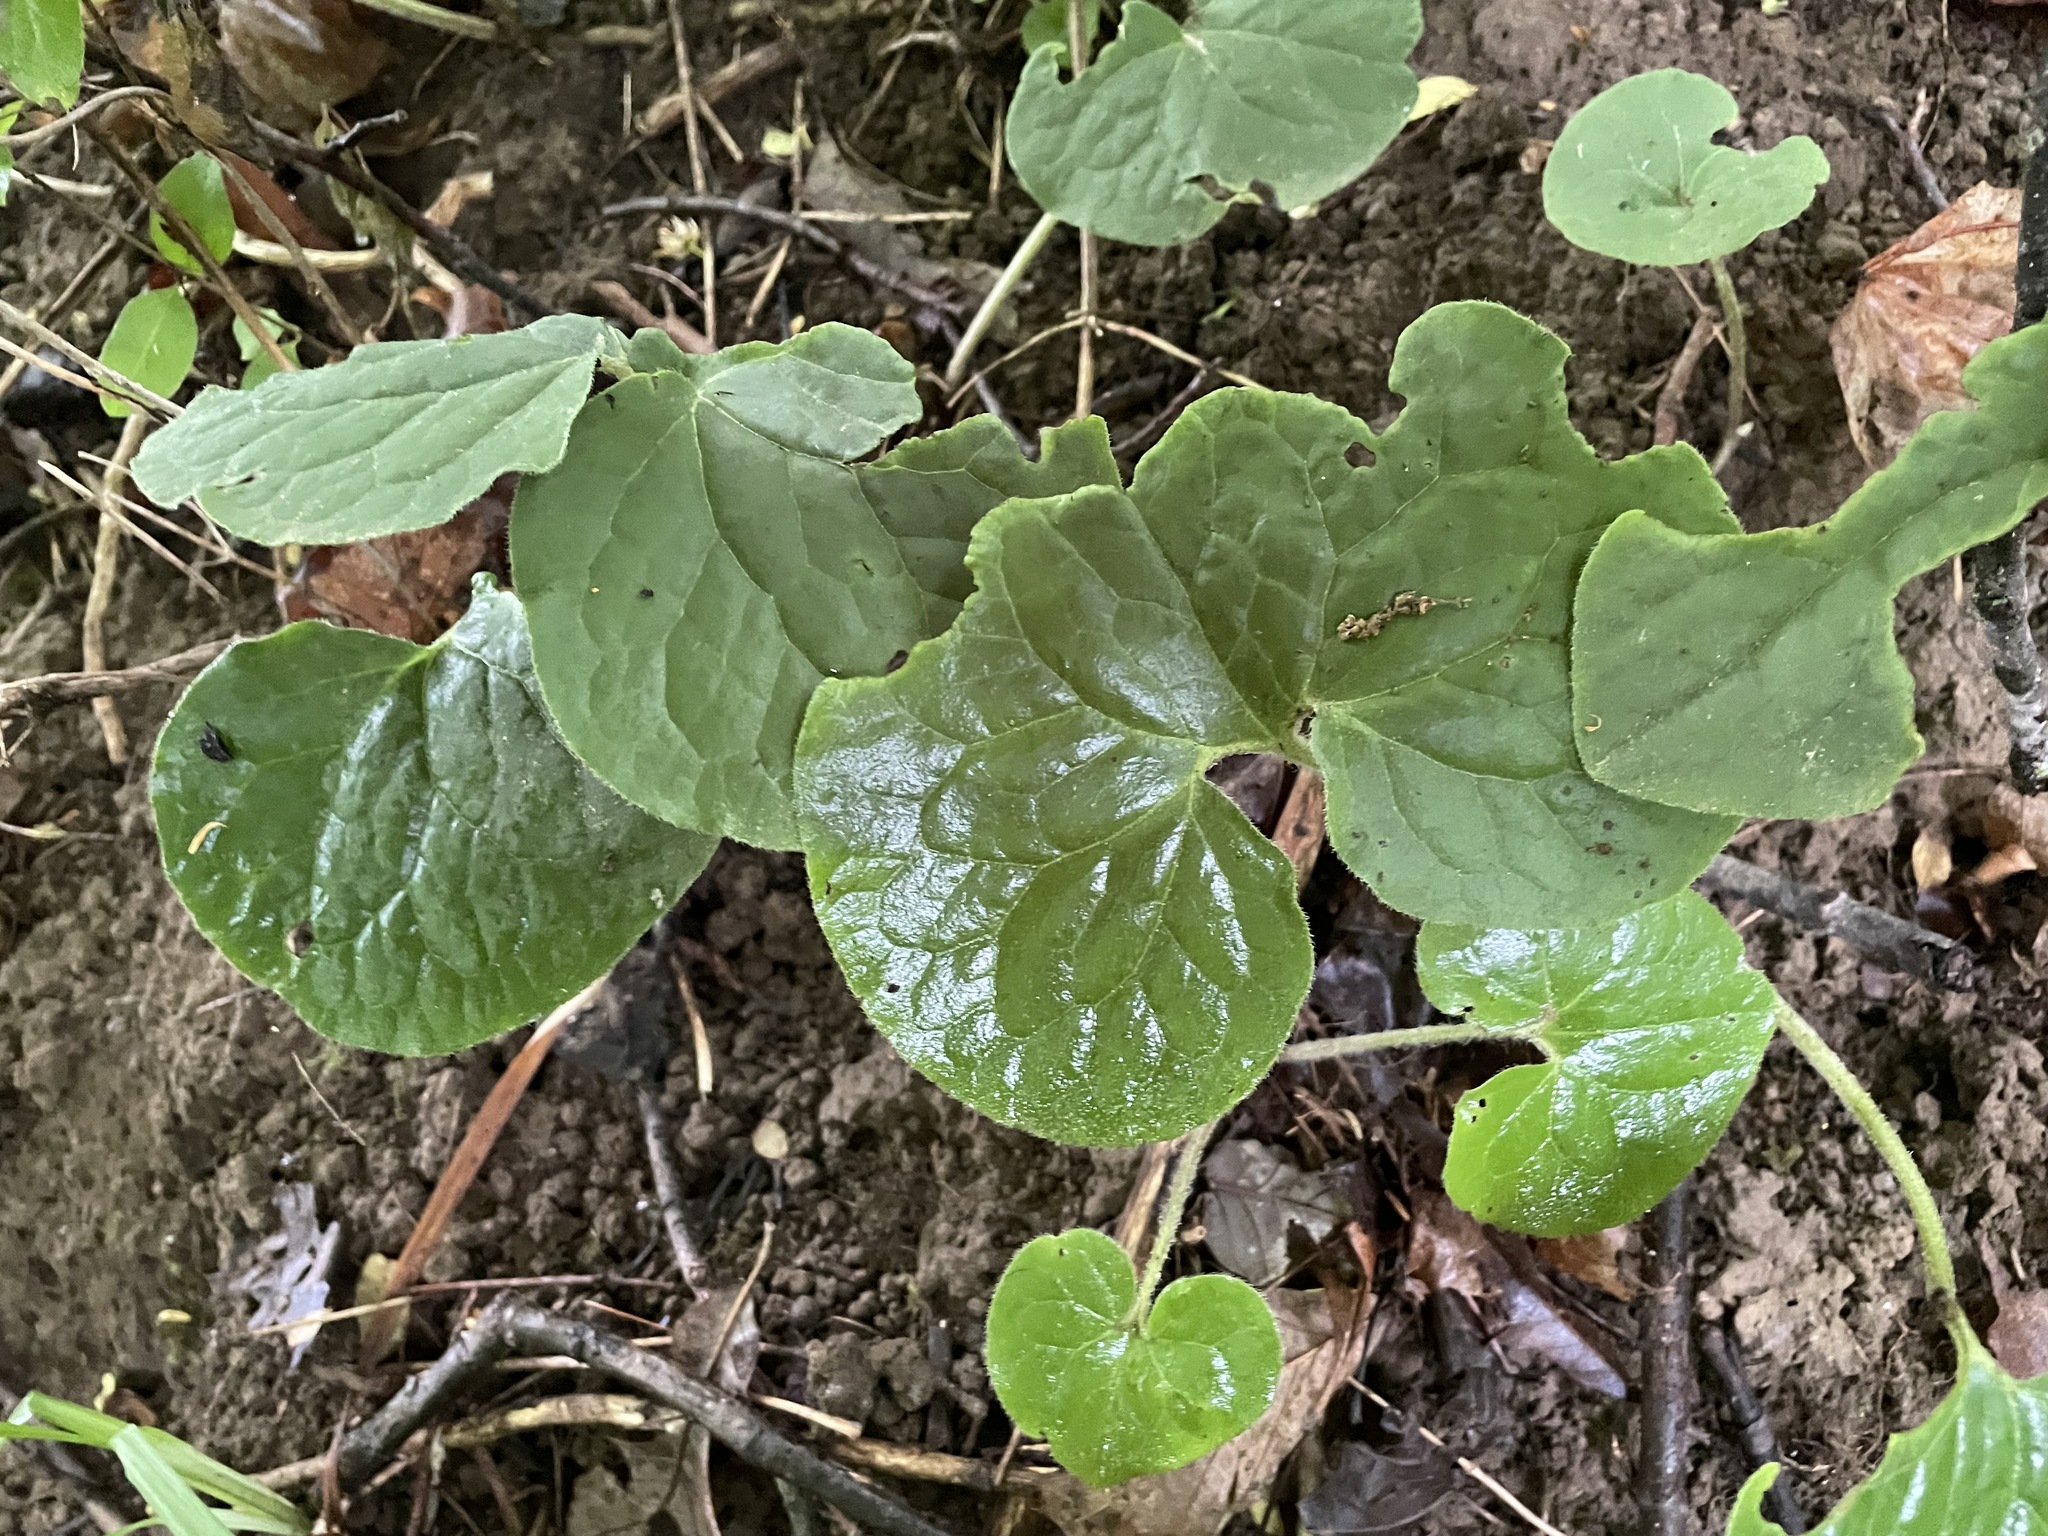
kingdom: Plantae
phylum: Tracheophyta
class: Magnoliopsida
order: Piperales
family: Aristolochiaceae
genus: Asarum
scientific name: Asarum canadense
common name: Wild ginger
